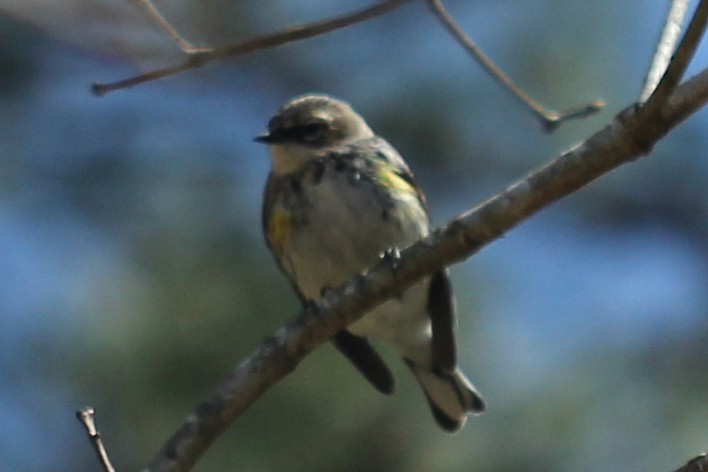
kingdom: Animalia
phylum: Chordata
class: Aves
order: Passeriformes
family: Parulidae
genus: Setophaga
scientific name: Setophaga coronata
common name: Myrtle warbler
